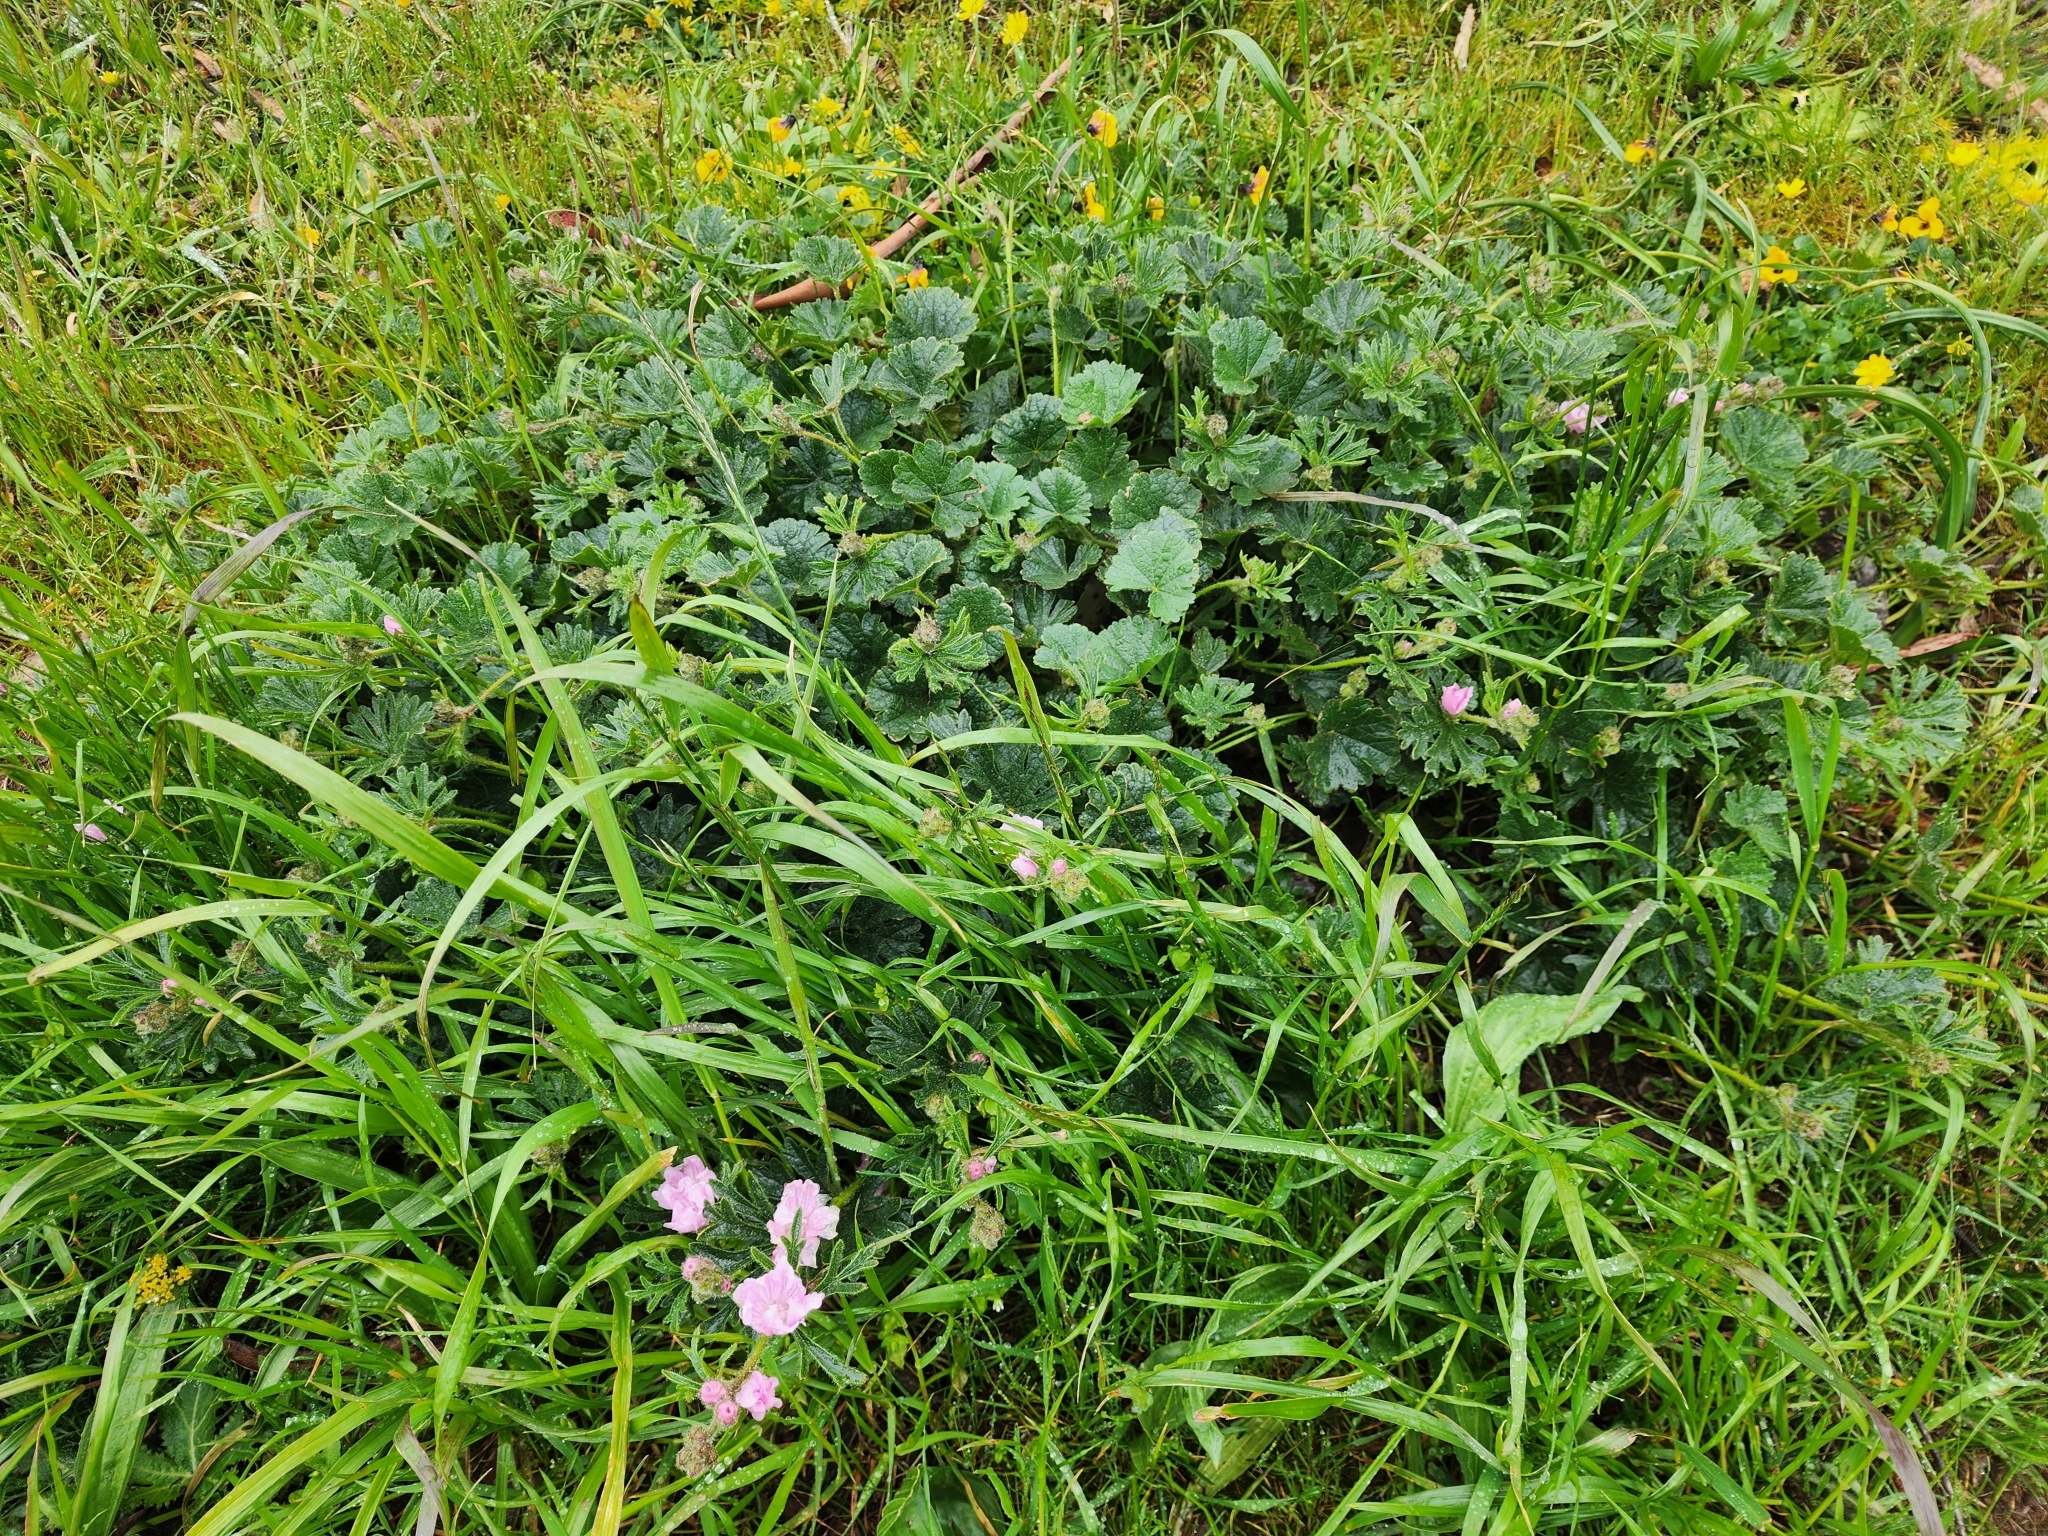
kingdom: Plantae
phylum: Tracheophyta
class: Magnoliopsida
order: Malvales
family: Malvaceae
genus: Sidalcea
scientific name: Sidalcea malviflora
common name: Greek mallow
